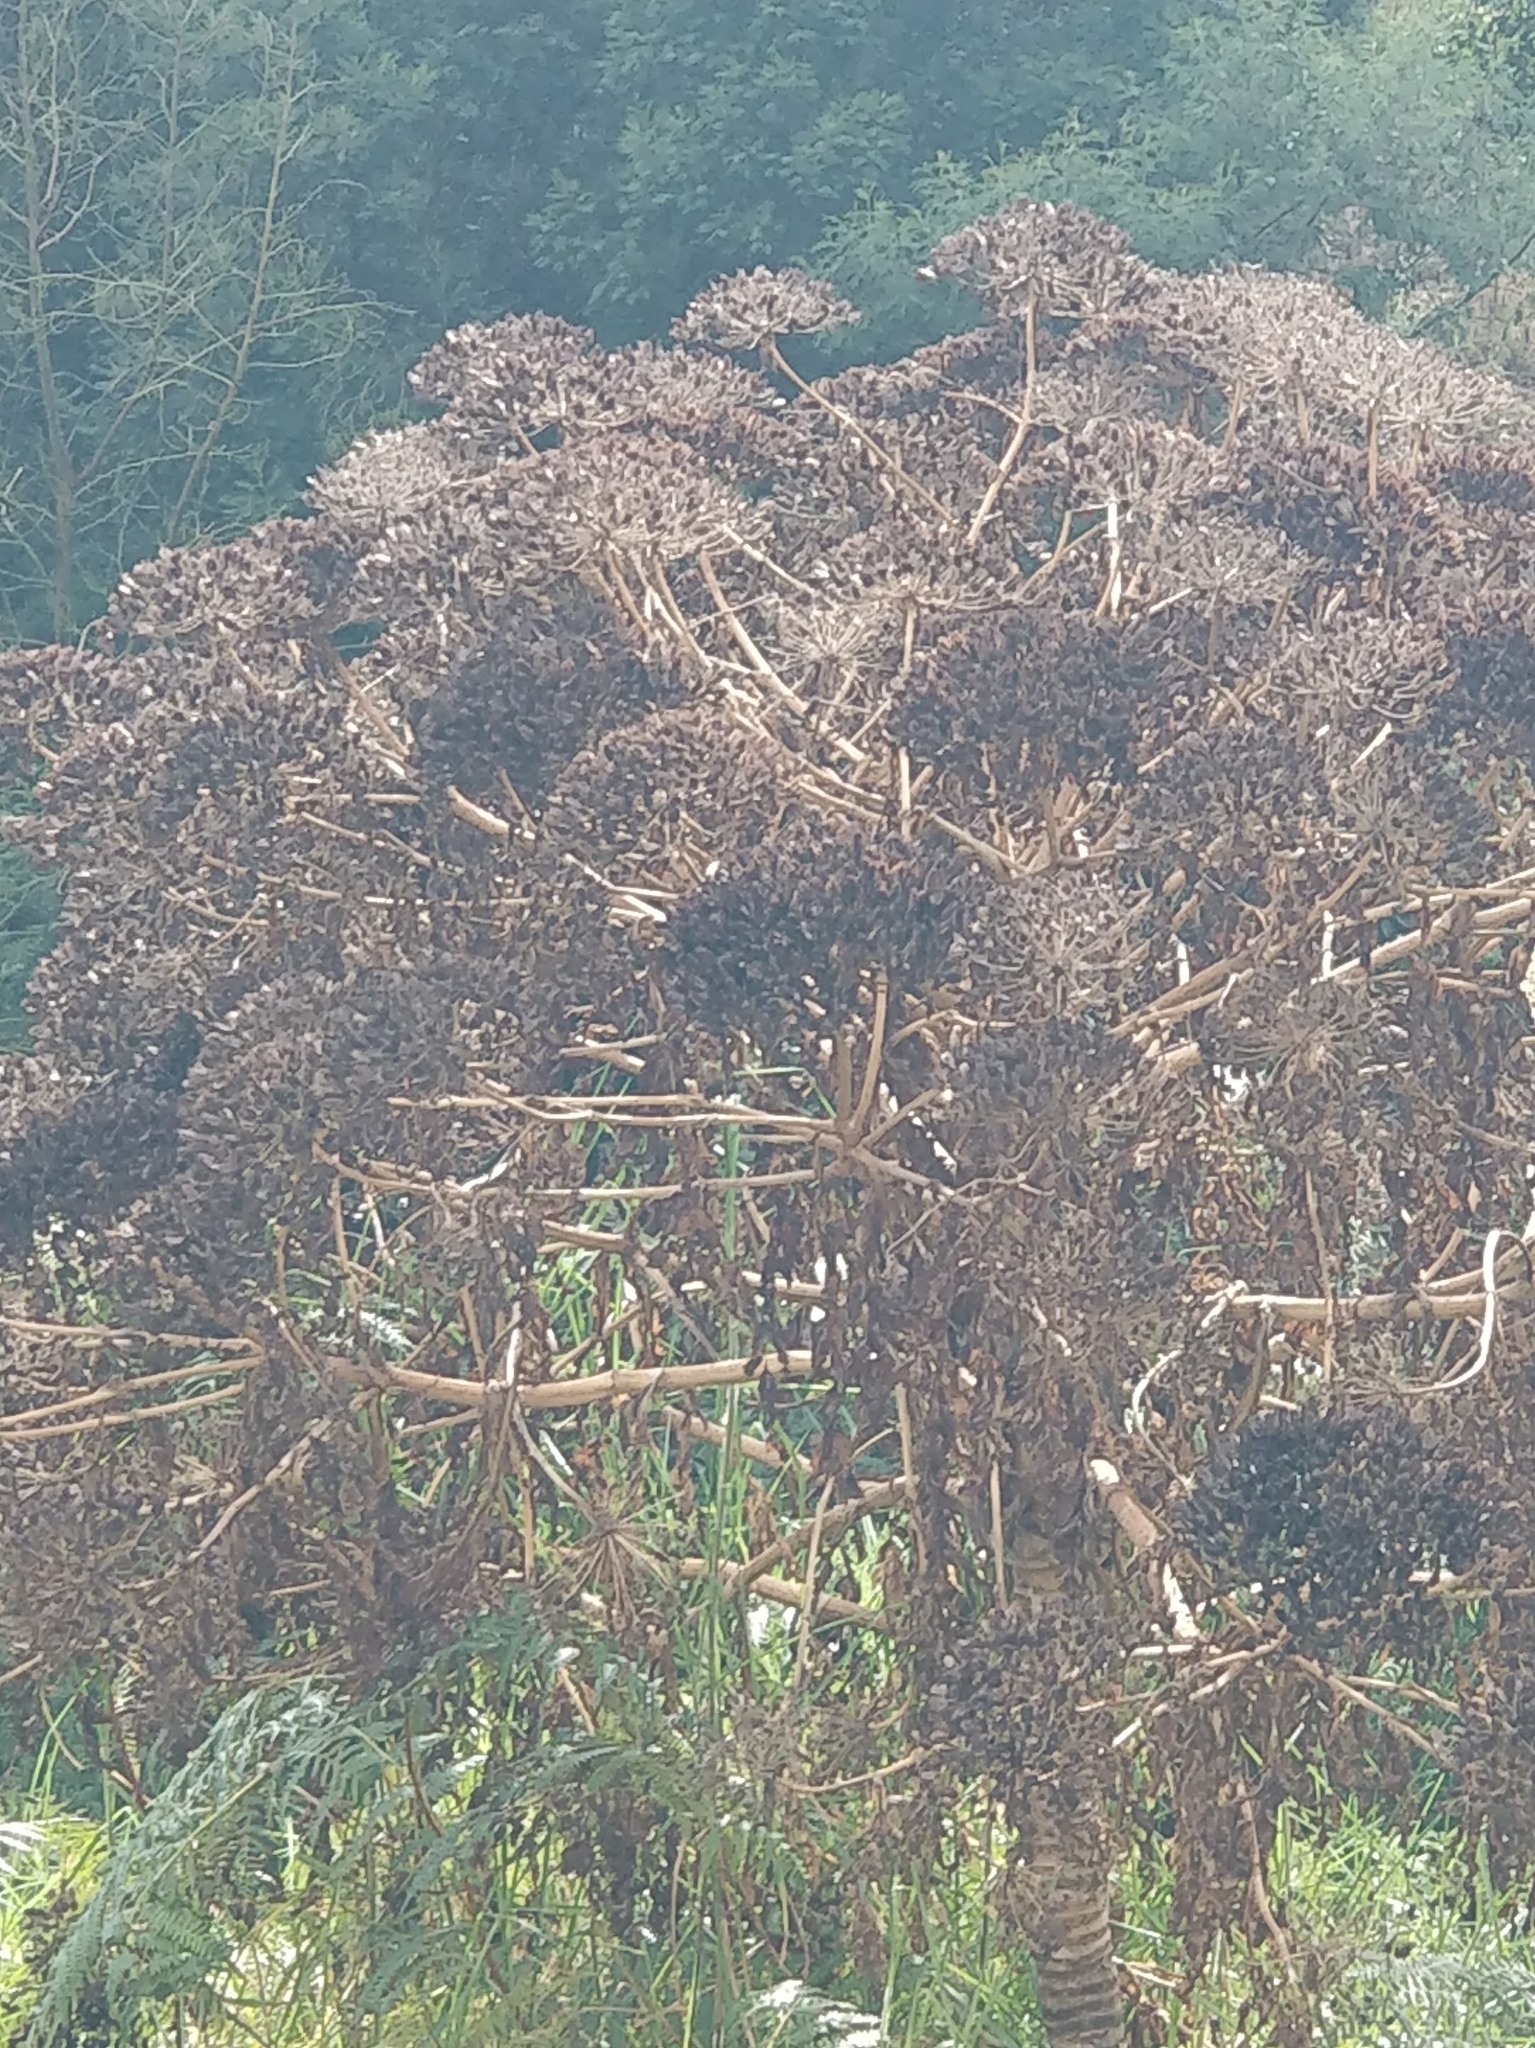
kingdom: Plantae
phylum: Tracheophyta
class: Magnoliopsida
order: Apiales
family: Apiaceae
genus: Daucus
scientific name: Daucus decipiens
